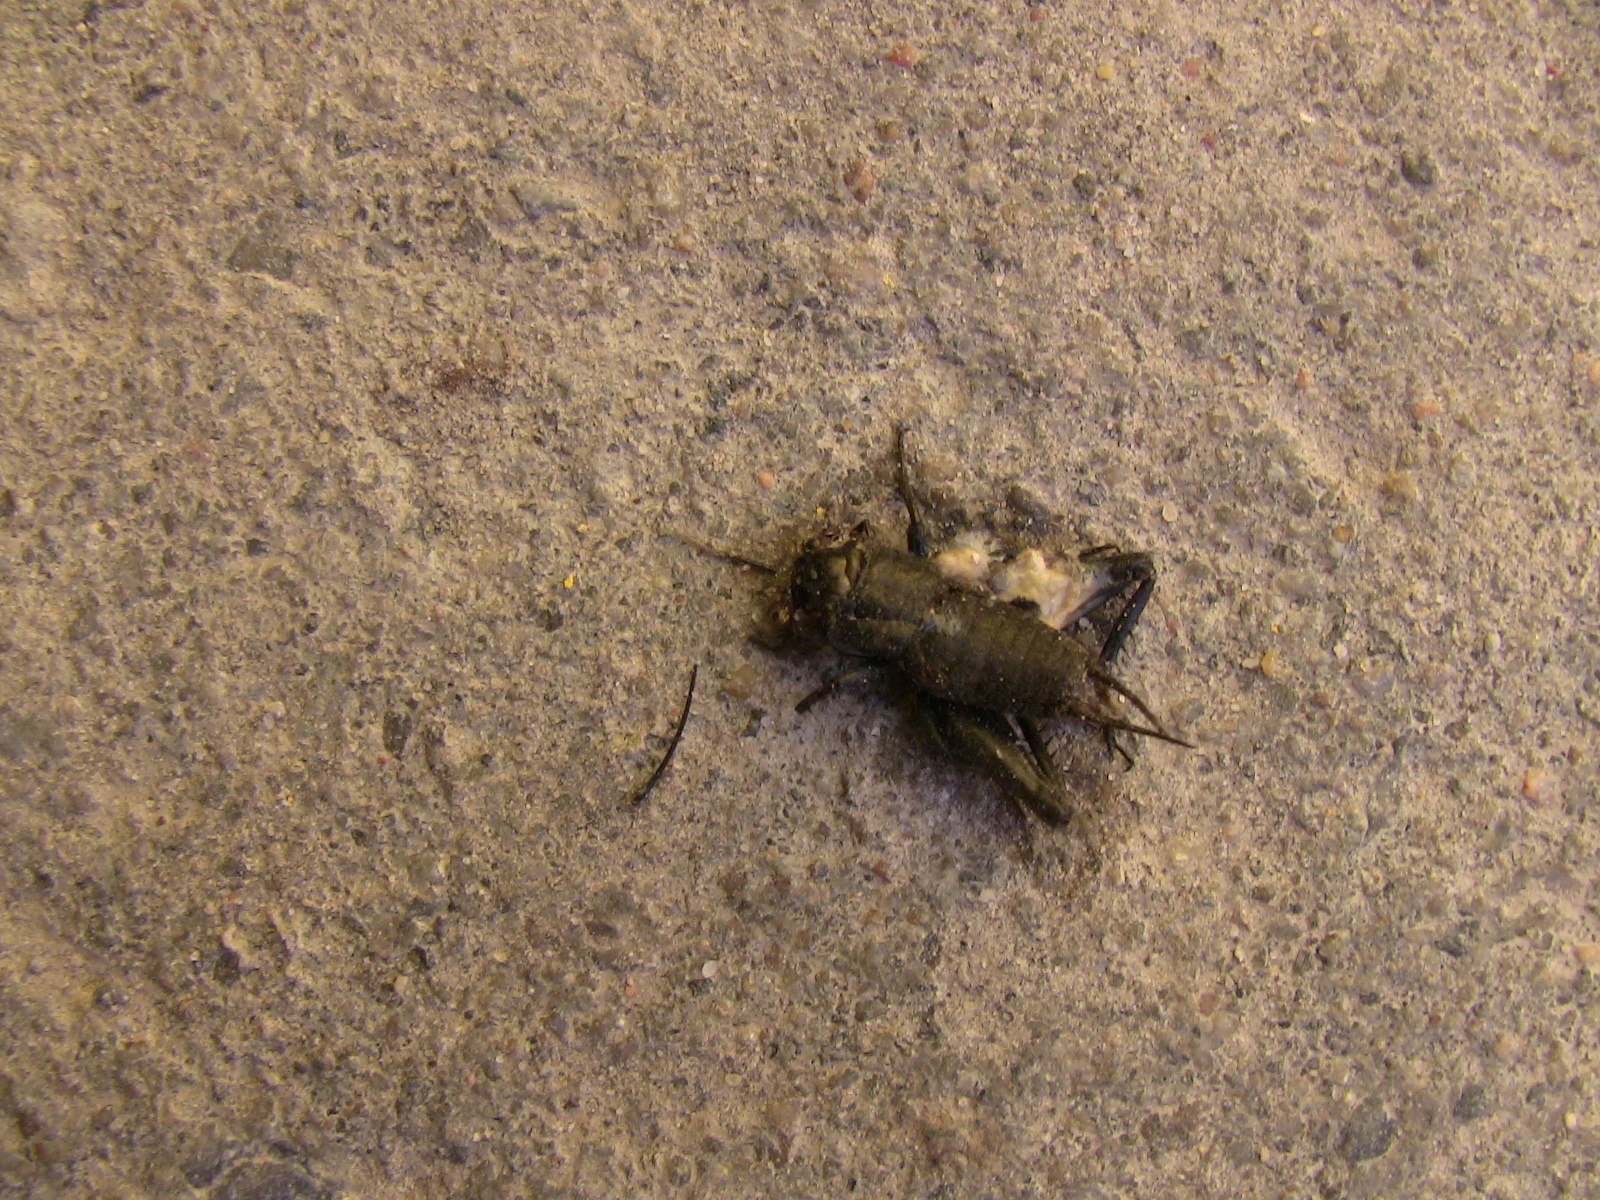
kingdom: Animalia
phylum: Arthropoda
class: Insecta
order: Orthoptera
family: Gryllidae
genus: Gryllus
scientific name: Gryllus veletis
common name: Spring field cricket
